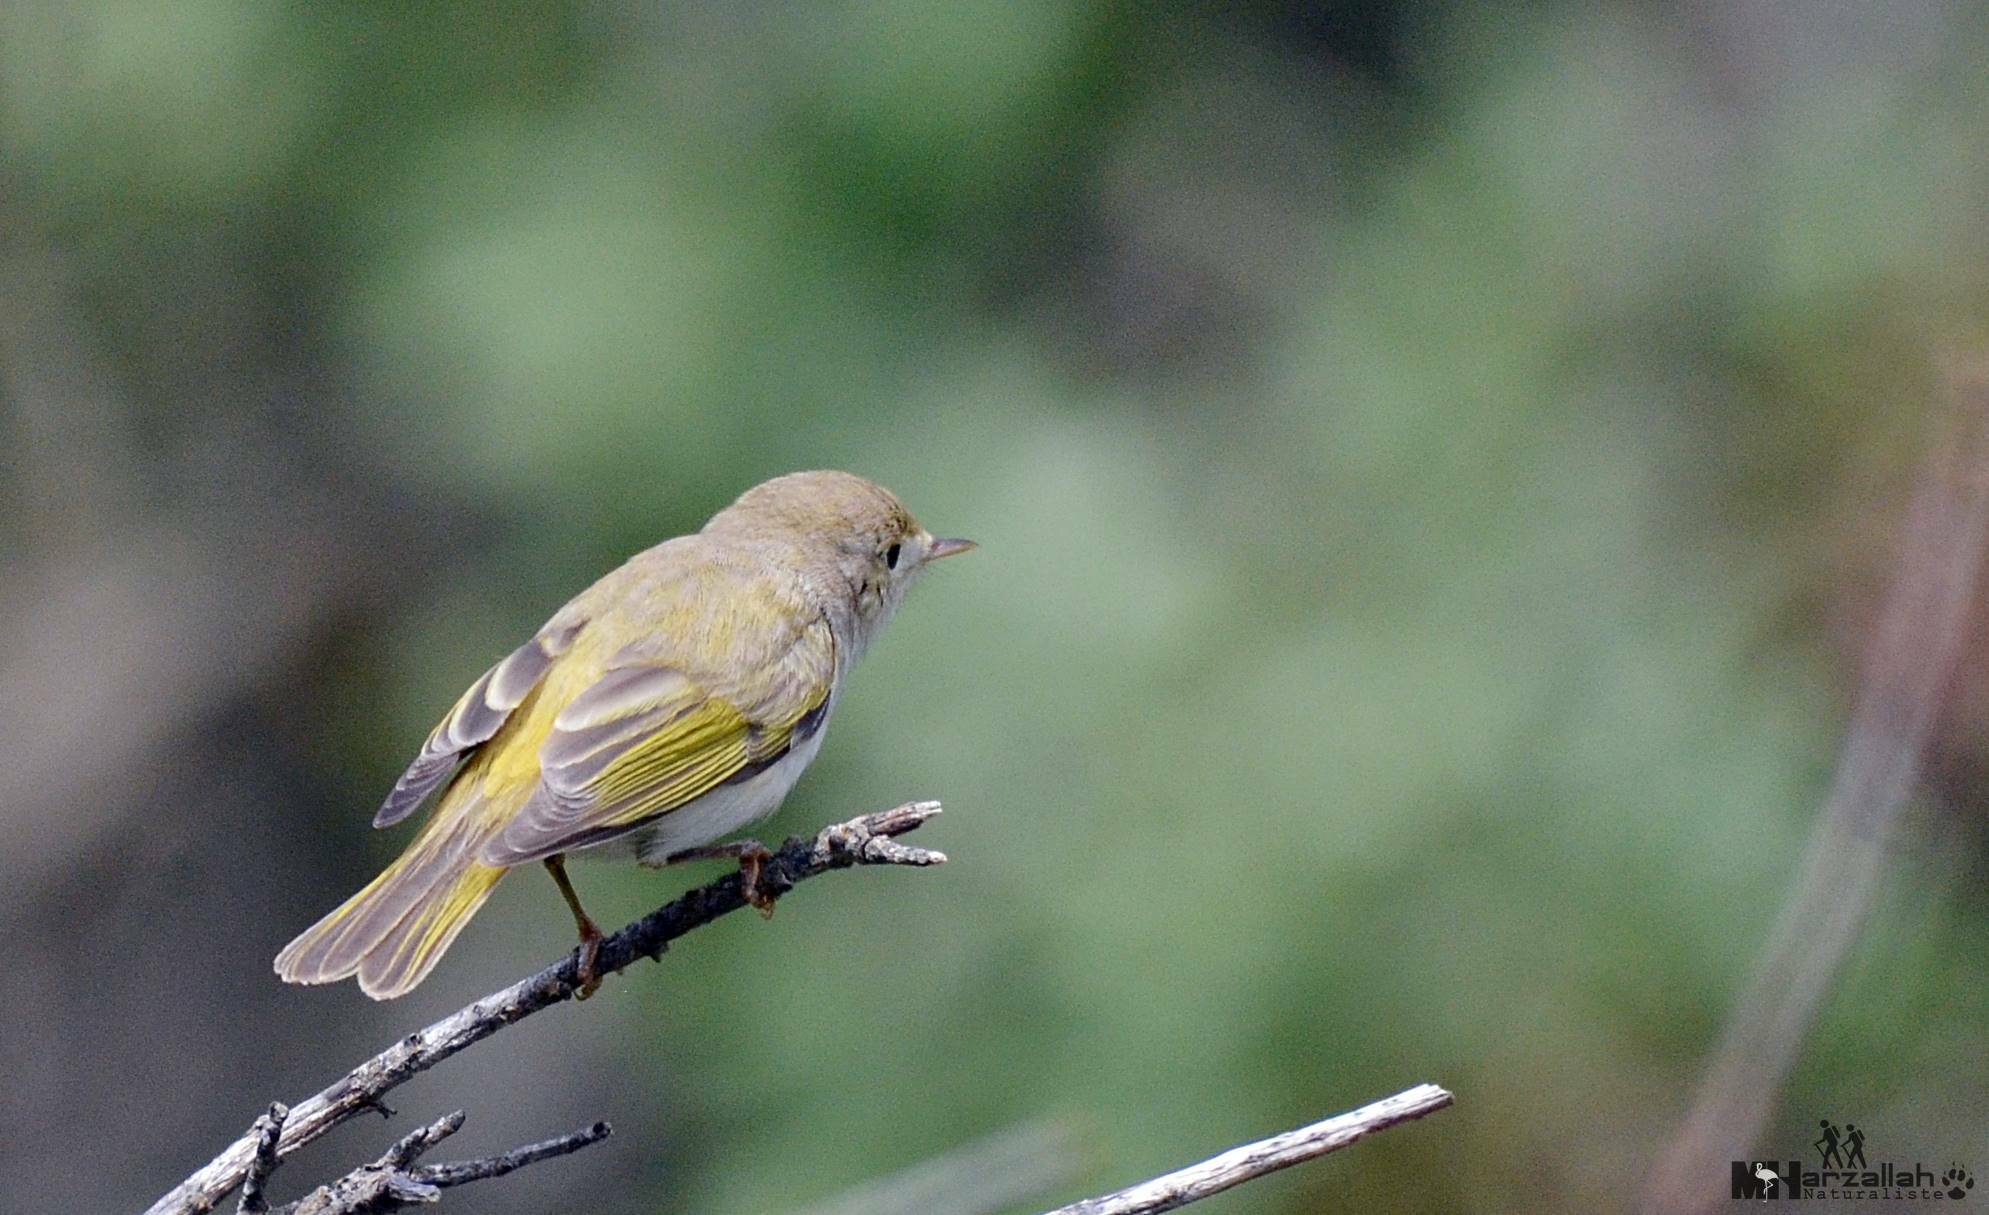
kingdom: Animalia
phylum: Chordata
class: Aves
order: Passeriformes
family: Phylloscopidae
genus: Phylloscopus
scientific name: Phylloscopus bonelli
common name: Western bonelli's warbler
